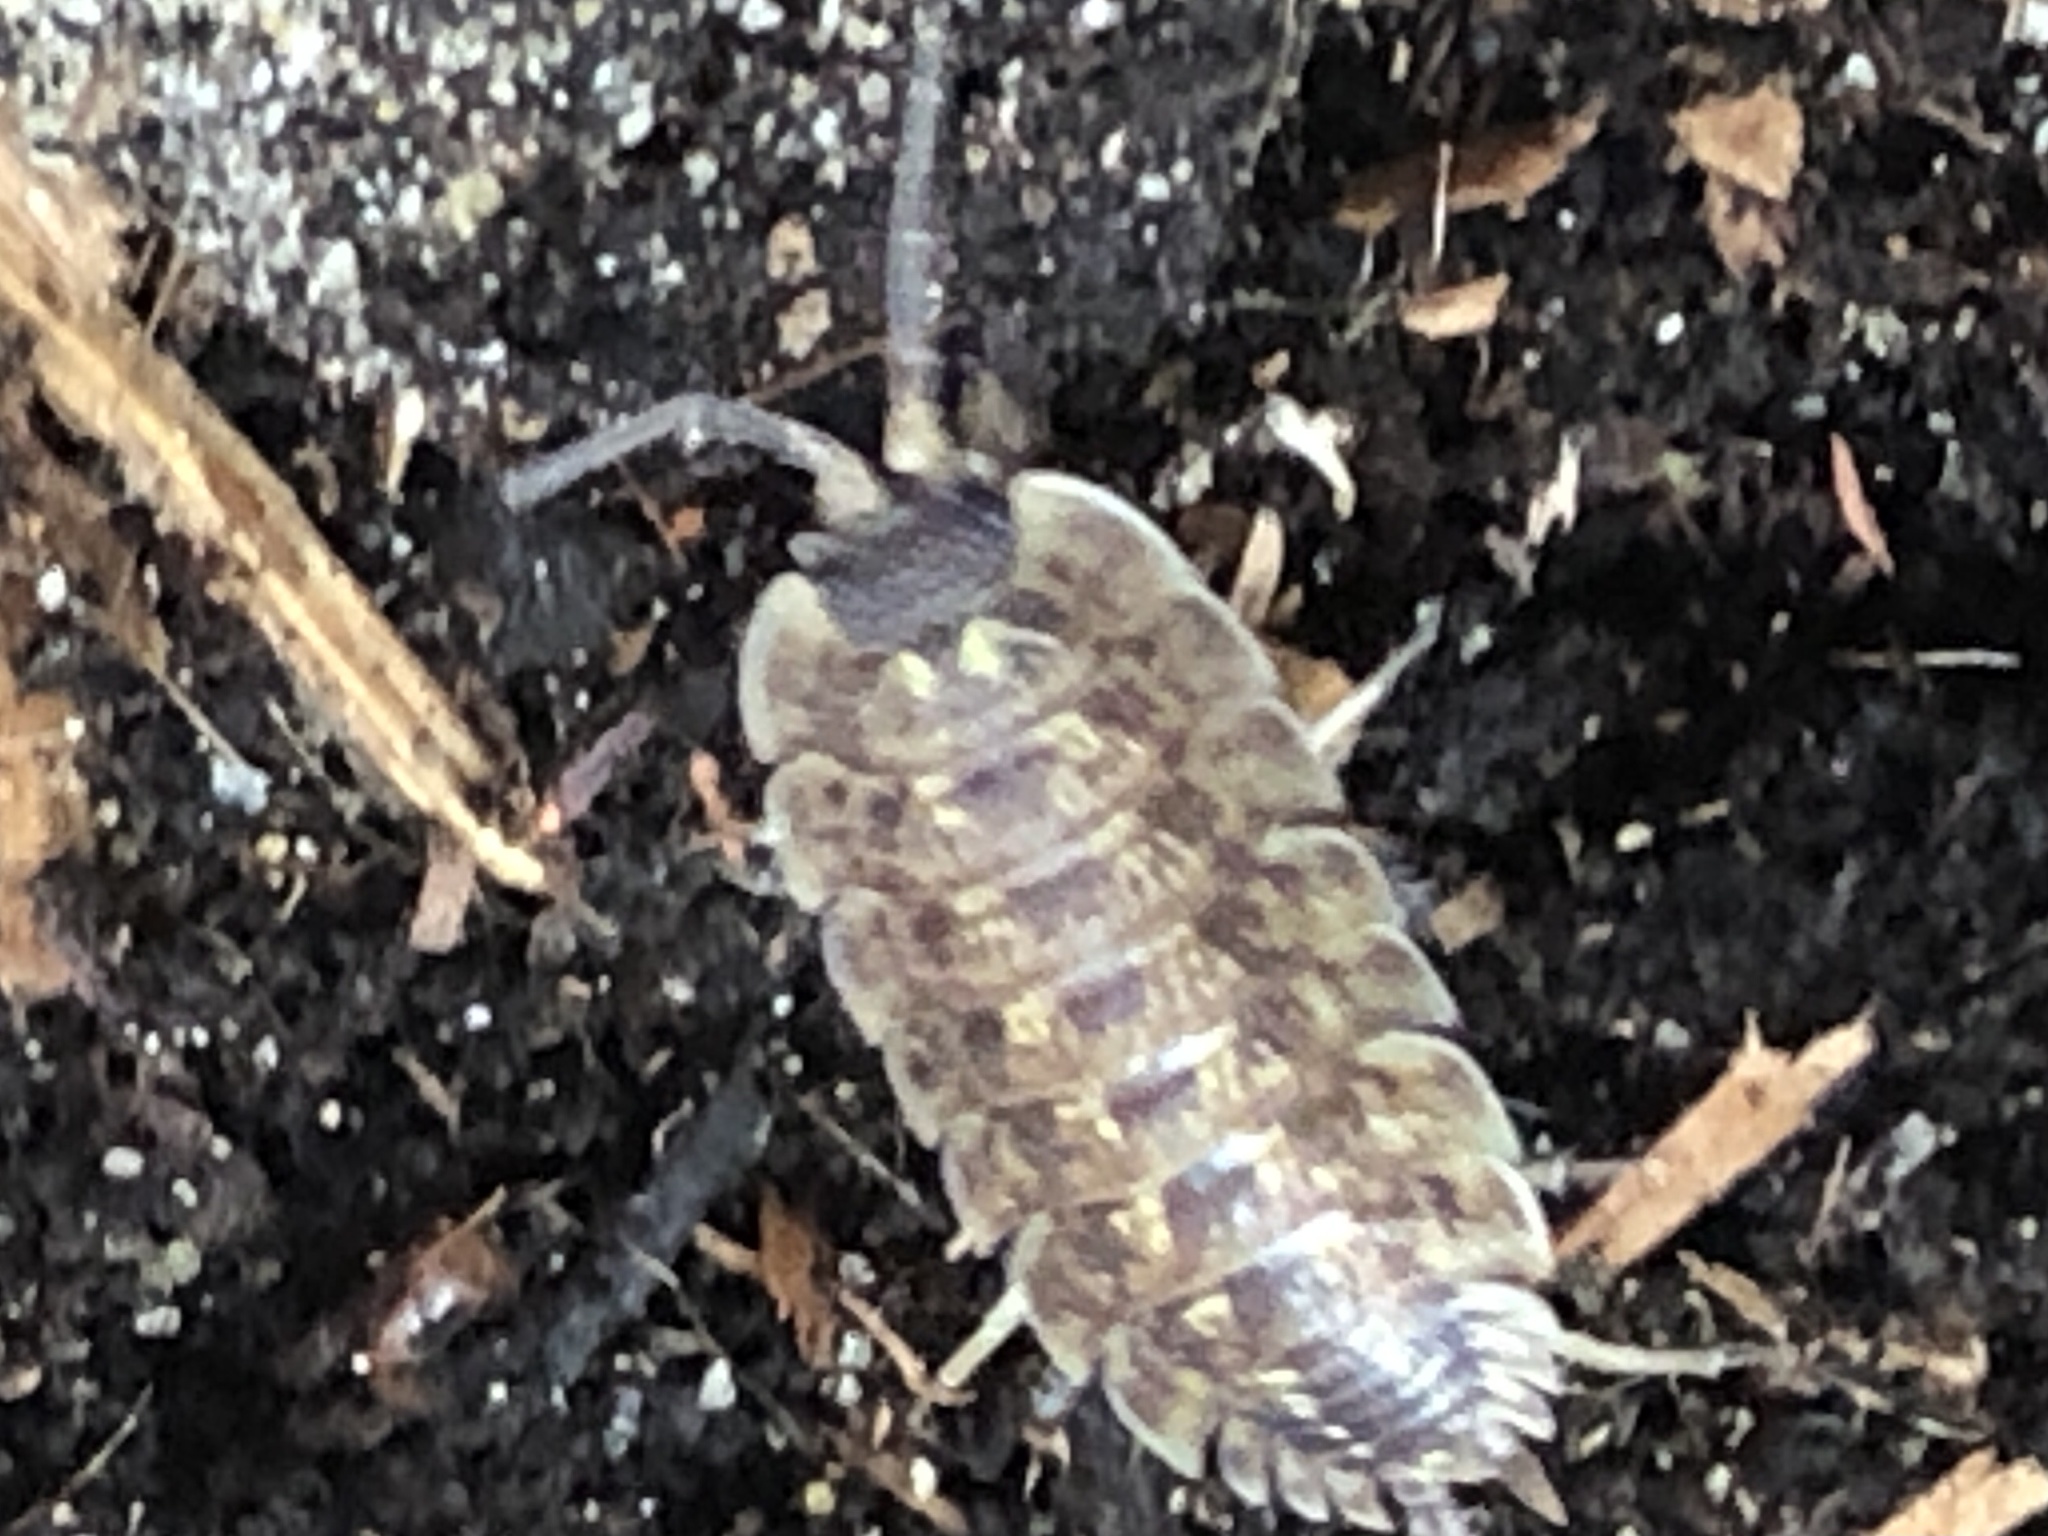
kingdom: Animalia
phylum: Arthropoda
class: Malacostraca
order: Isopoda
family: Porcellionidae
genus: Porcellio
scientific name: Porcellio spinicornis
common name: Painted woodlouse
